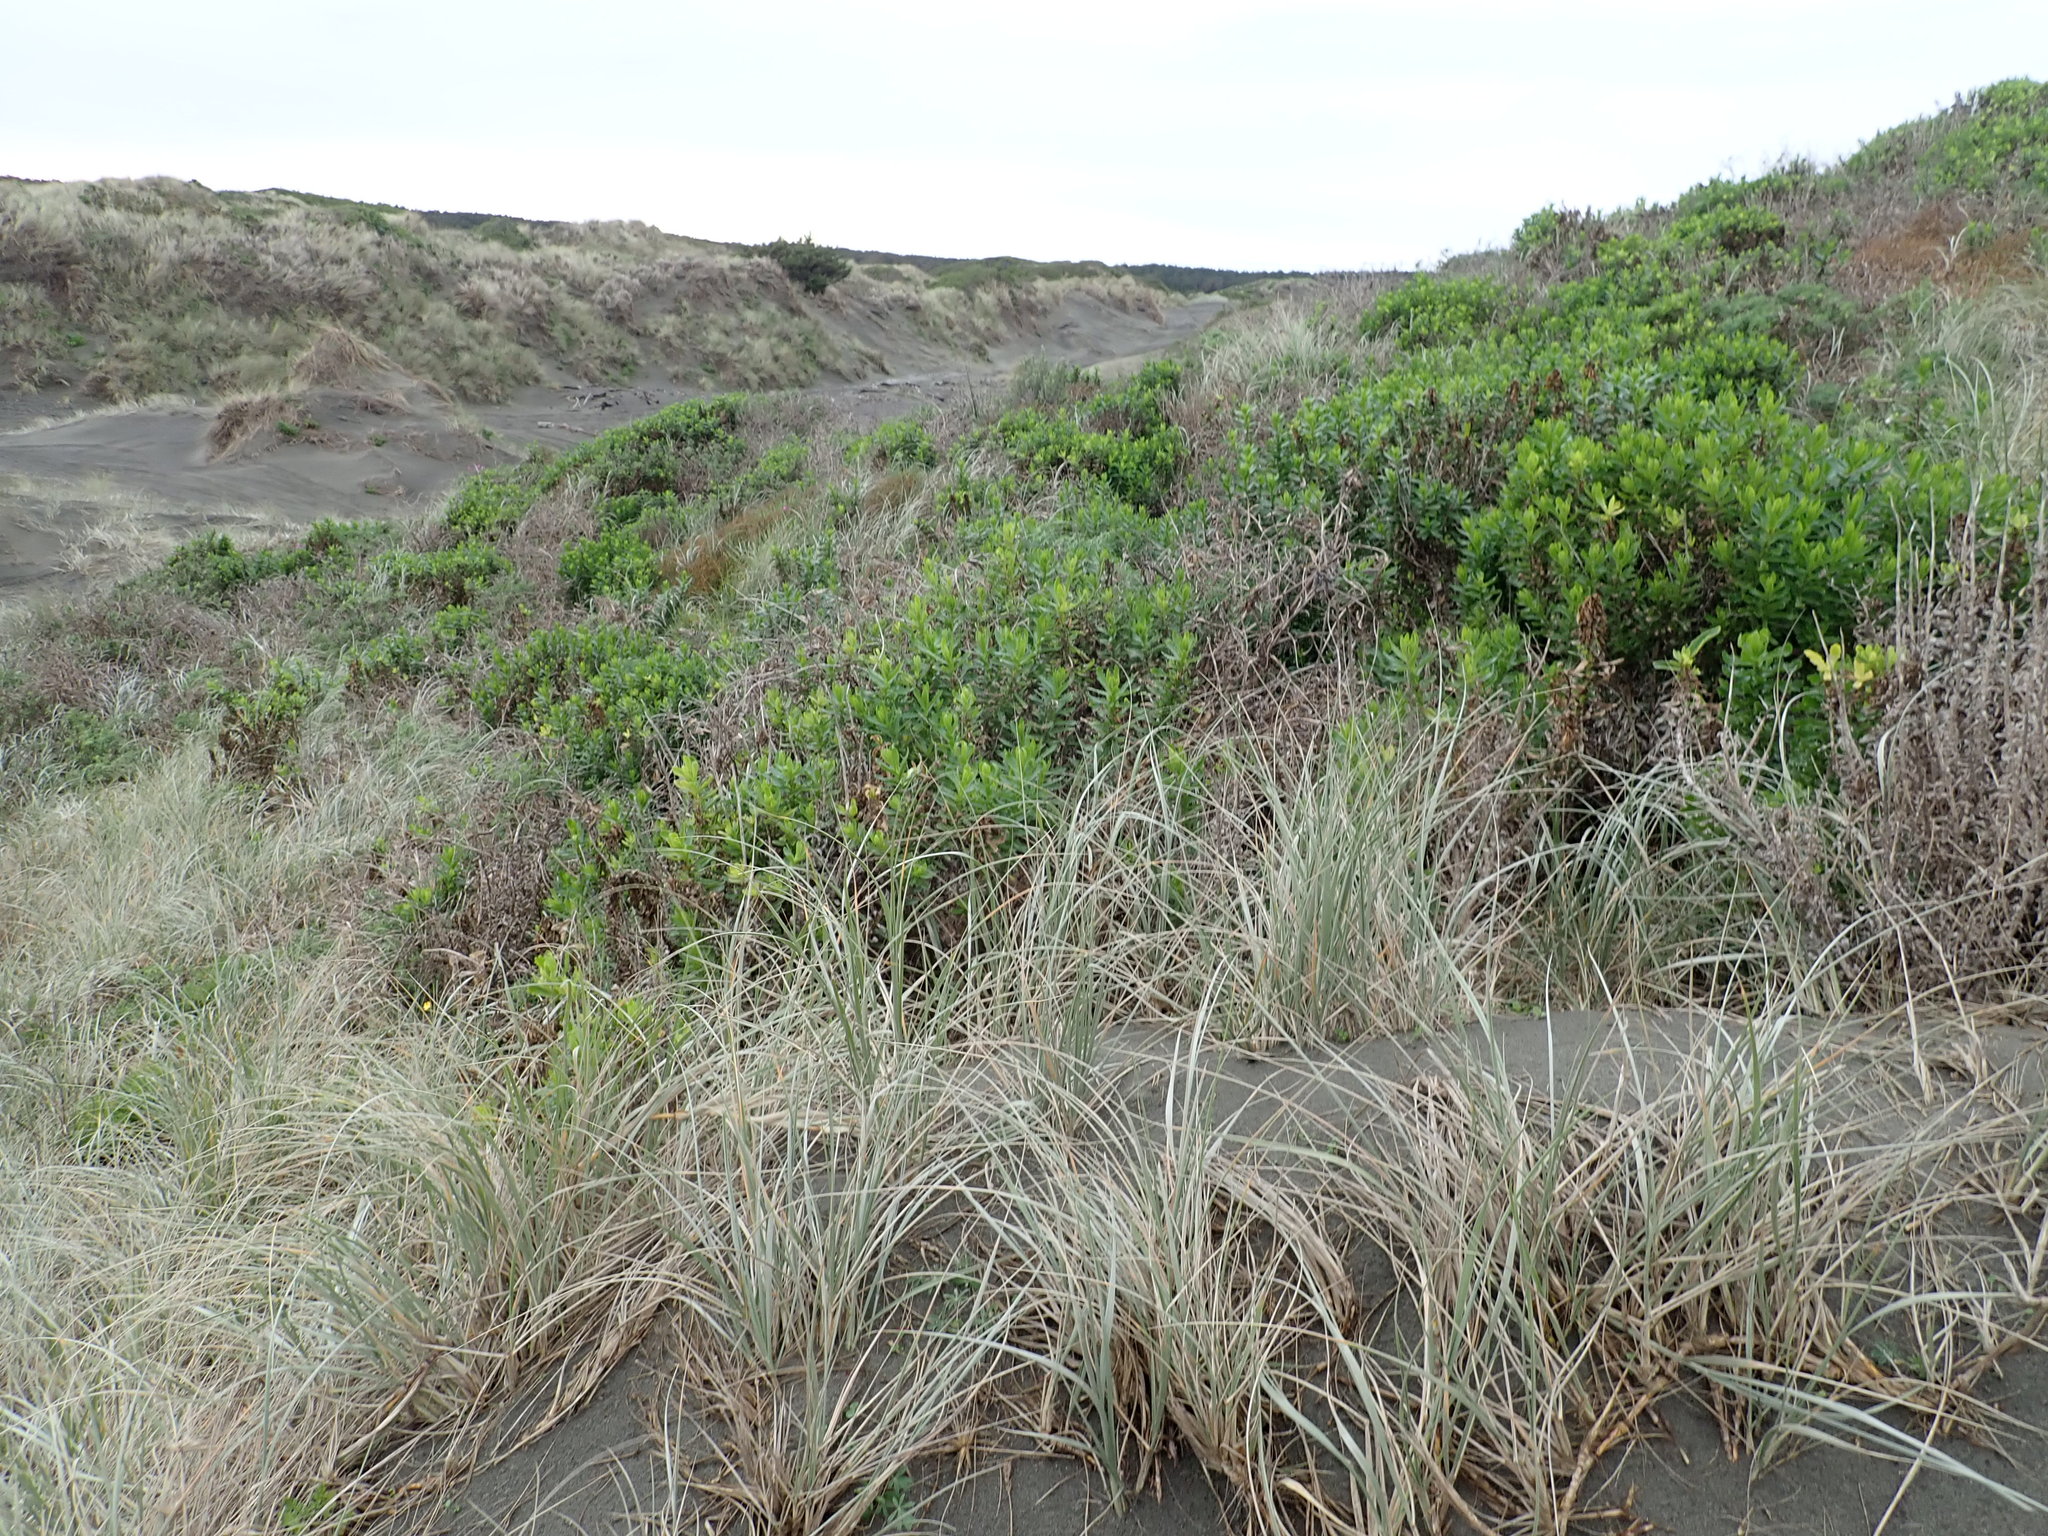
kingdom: Plantae
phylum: Tracheophyta
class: Magnoliopsida
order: Asterales
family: Asteraceae
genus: Senecio
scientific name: Senecio glastifolius
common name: Woad-leaved ragwort
